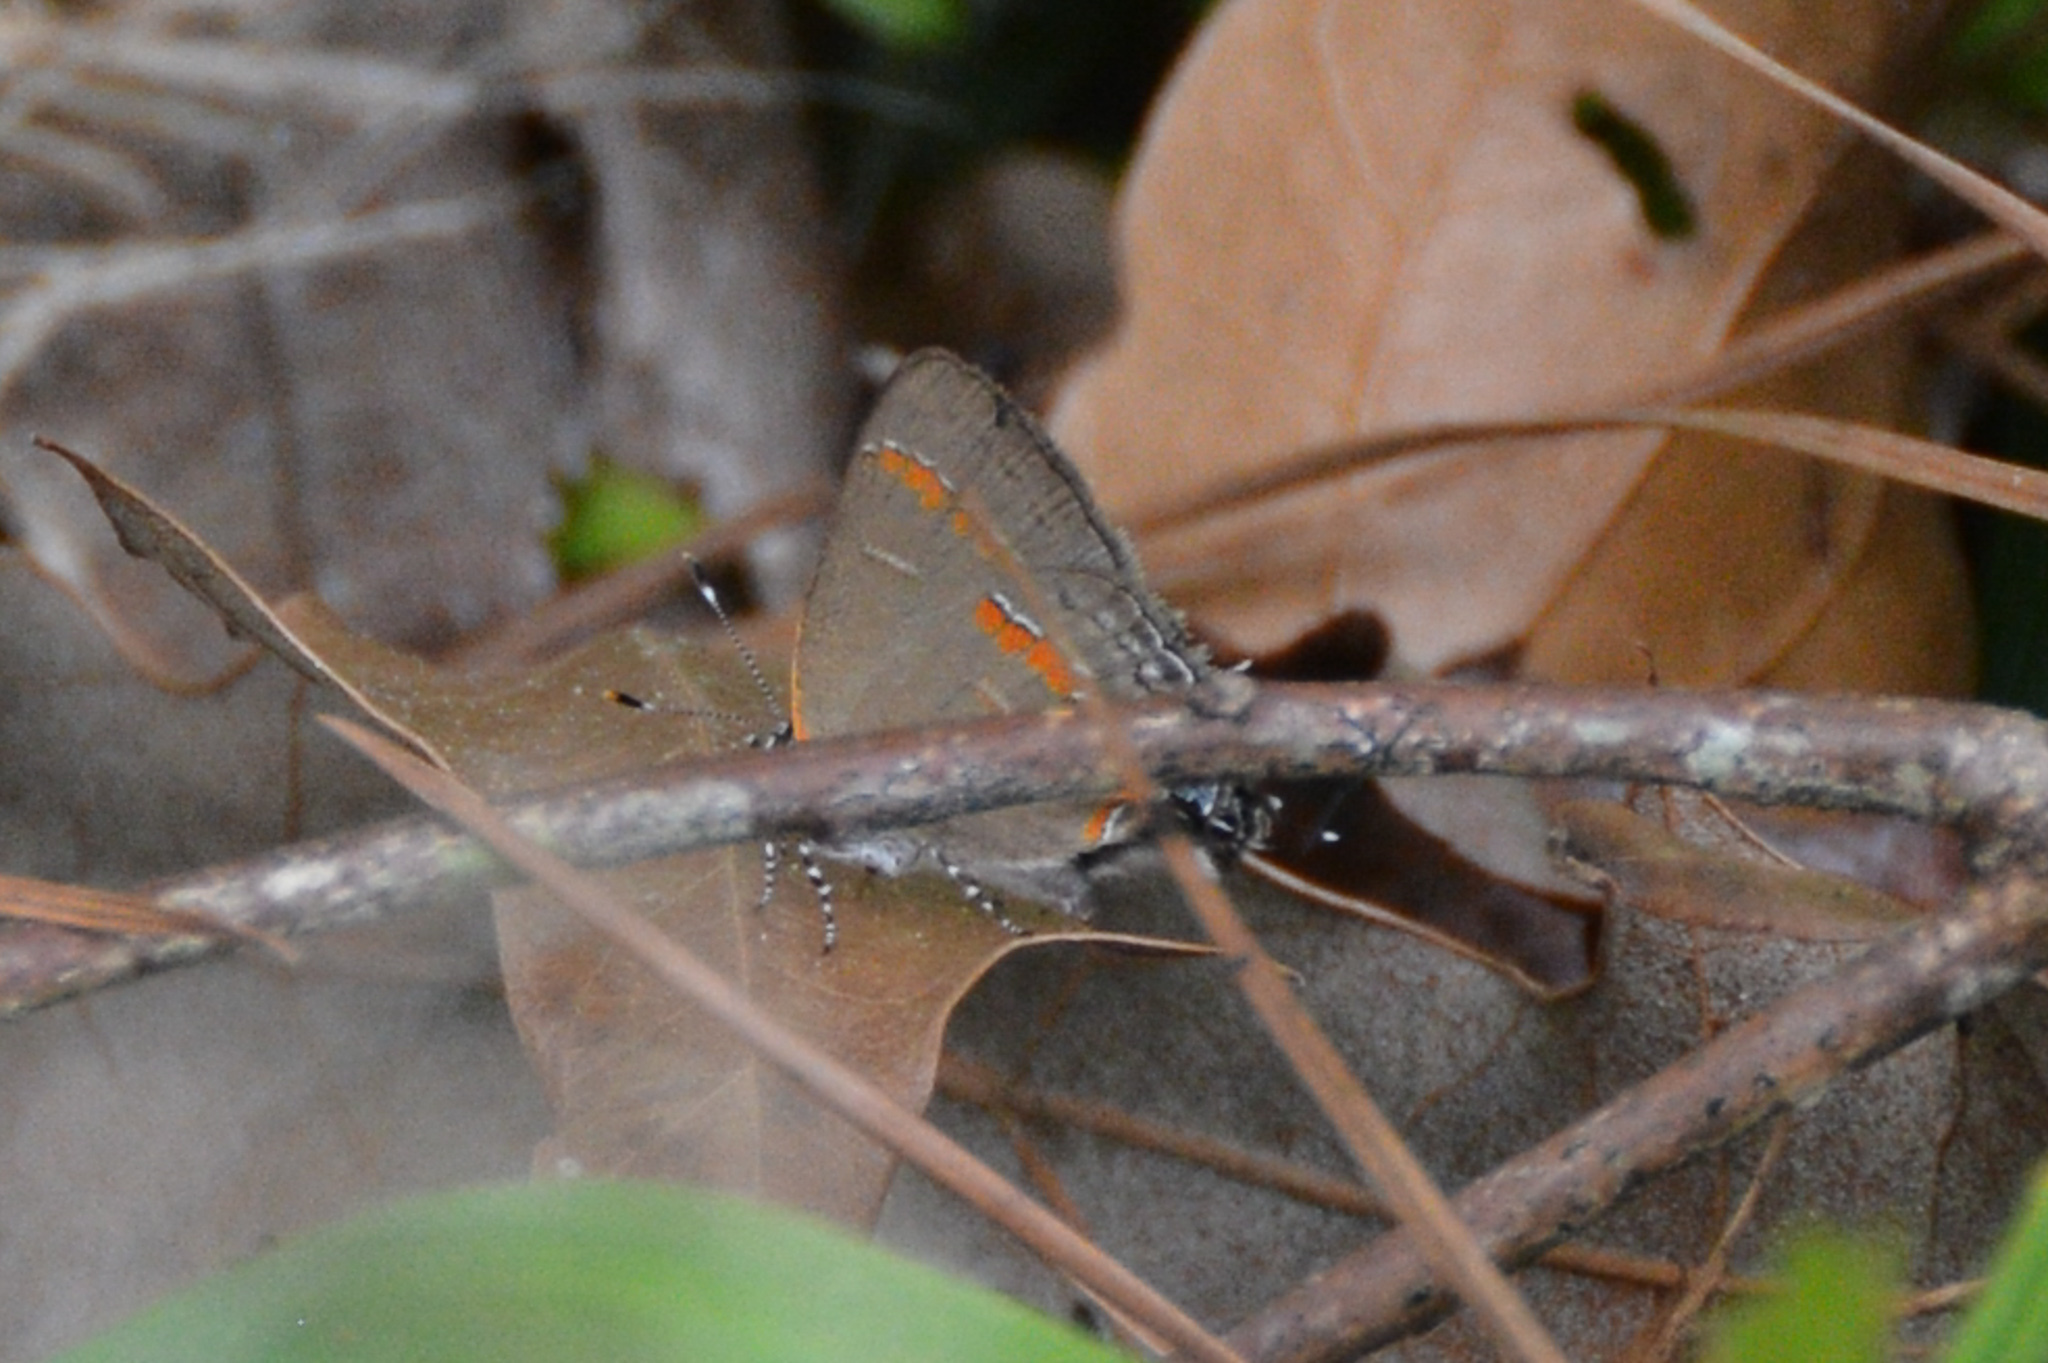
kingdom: Animalia
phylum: Arthropoda
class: Insecta
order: Lepidoptera
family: Lycaenidae
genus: Calycopis
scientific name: Calycopis cecrops
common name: Red-banded hairstreak
